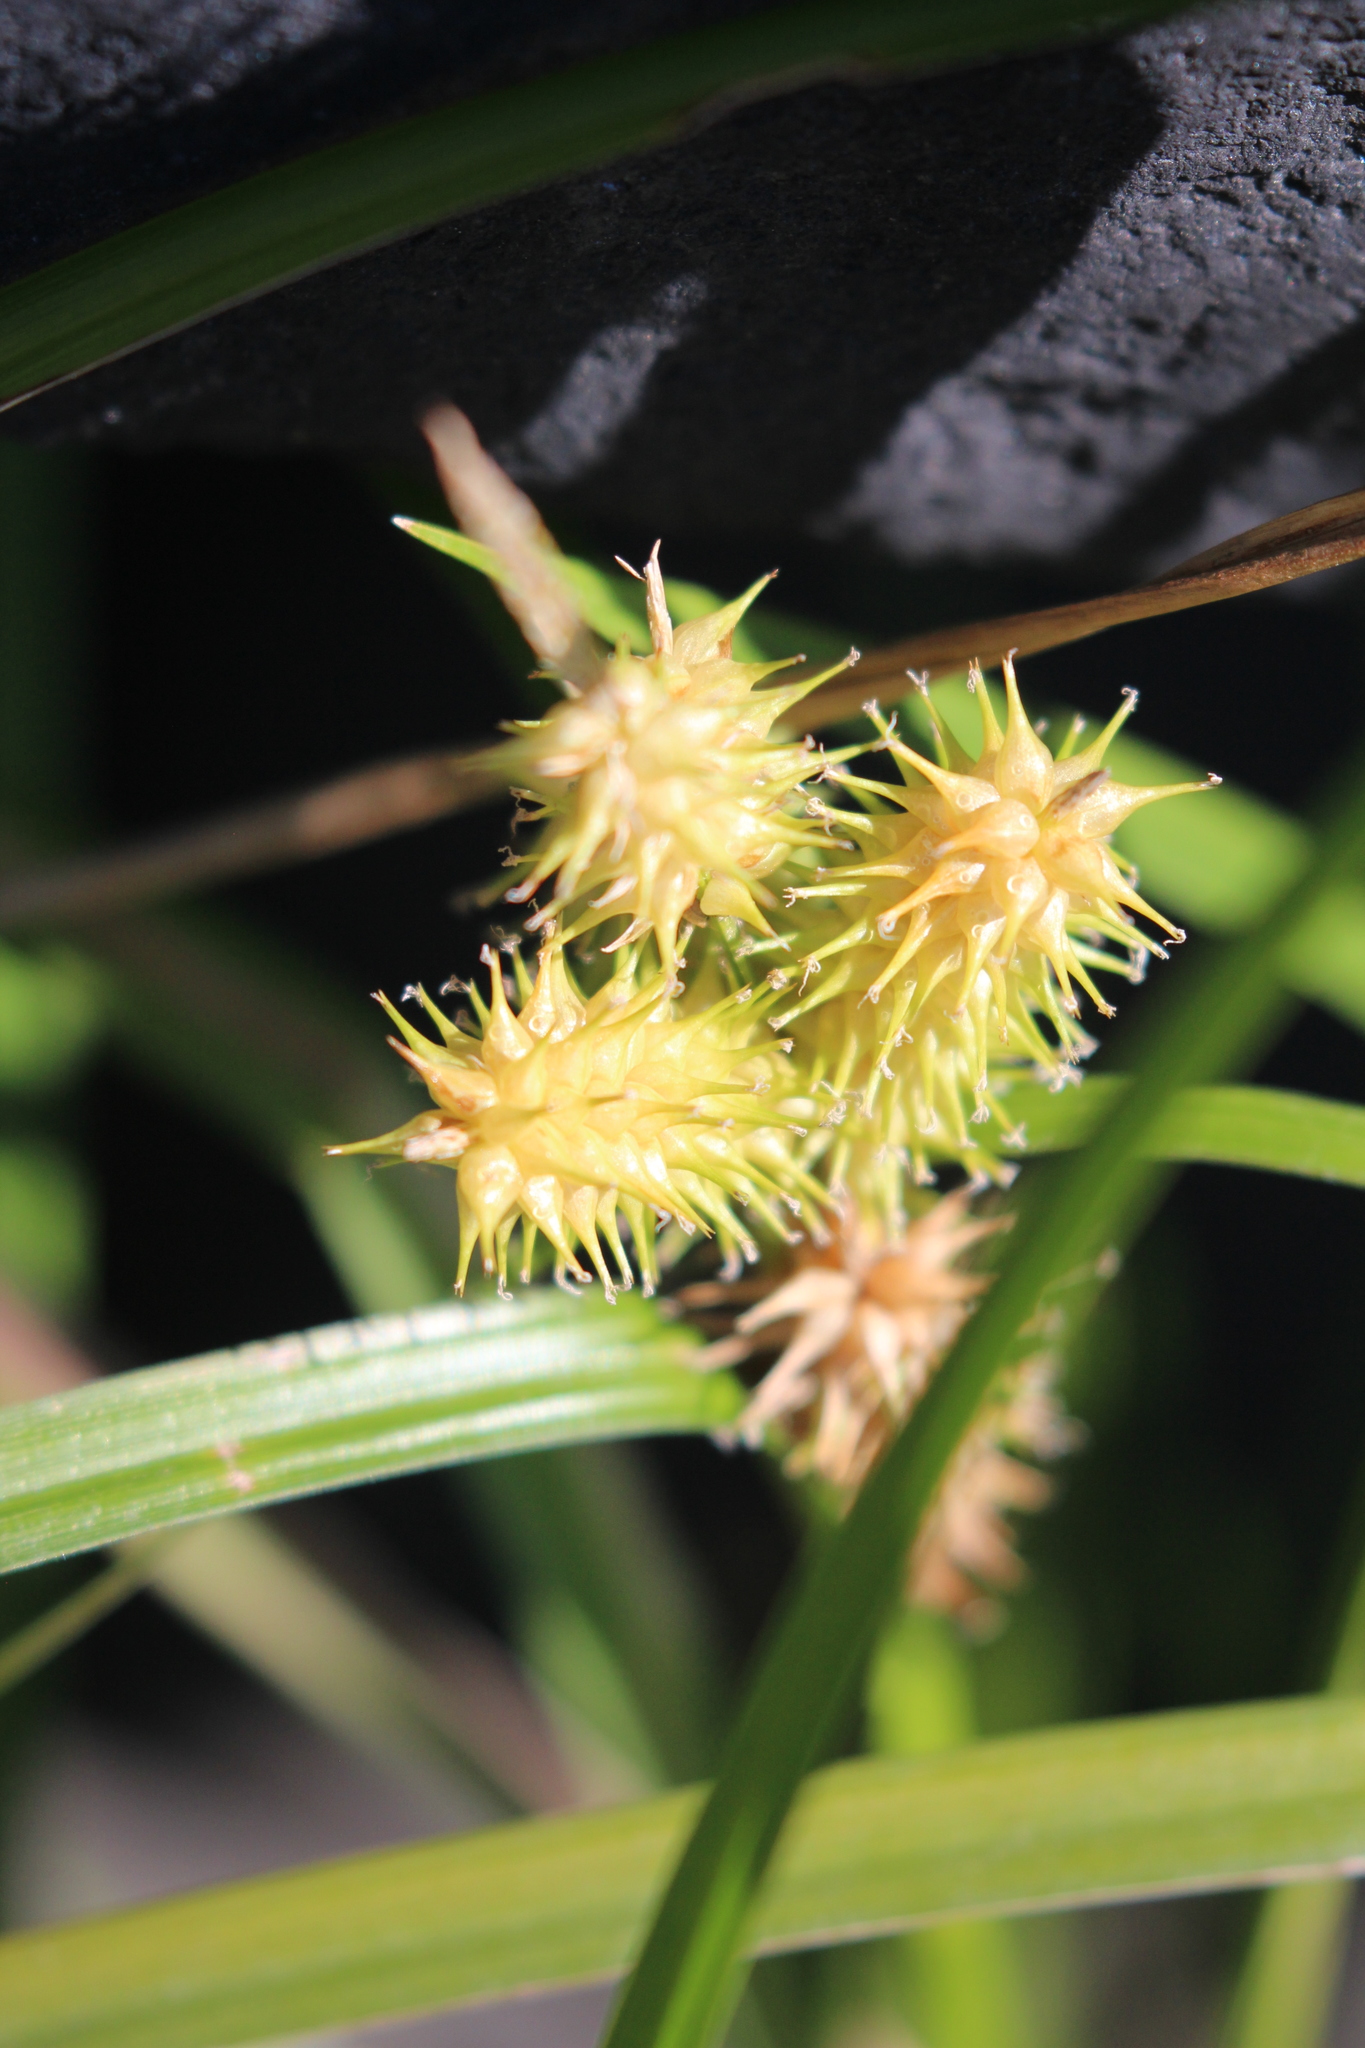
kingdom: Plantae
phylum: Tracheophyta
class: Liliopsida
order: Poales
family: Cyperaceae
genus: Carex
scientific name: Carex retrorsa
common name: Knot-sheath sedge
